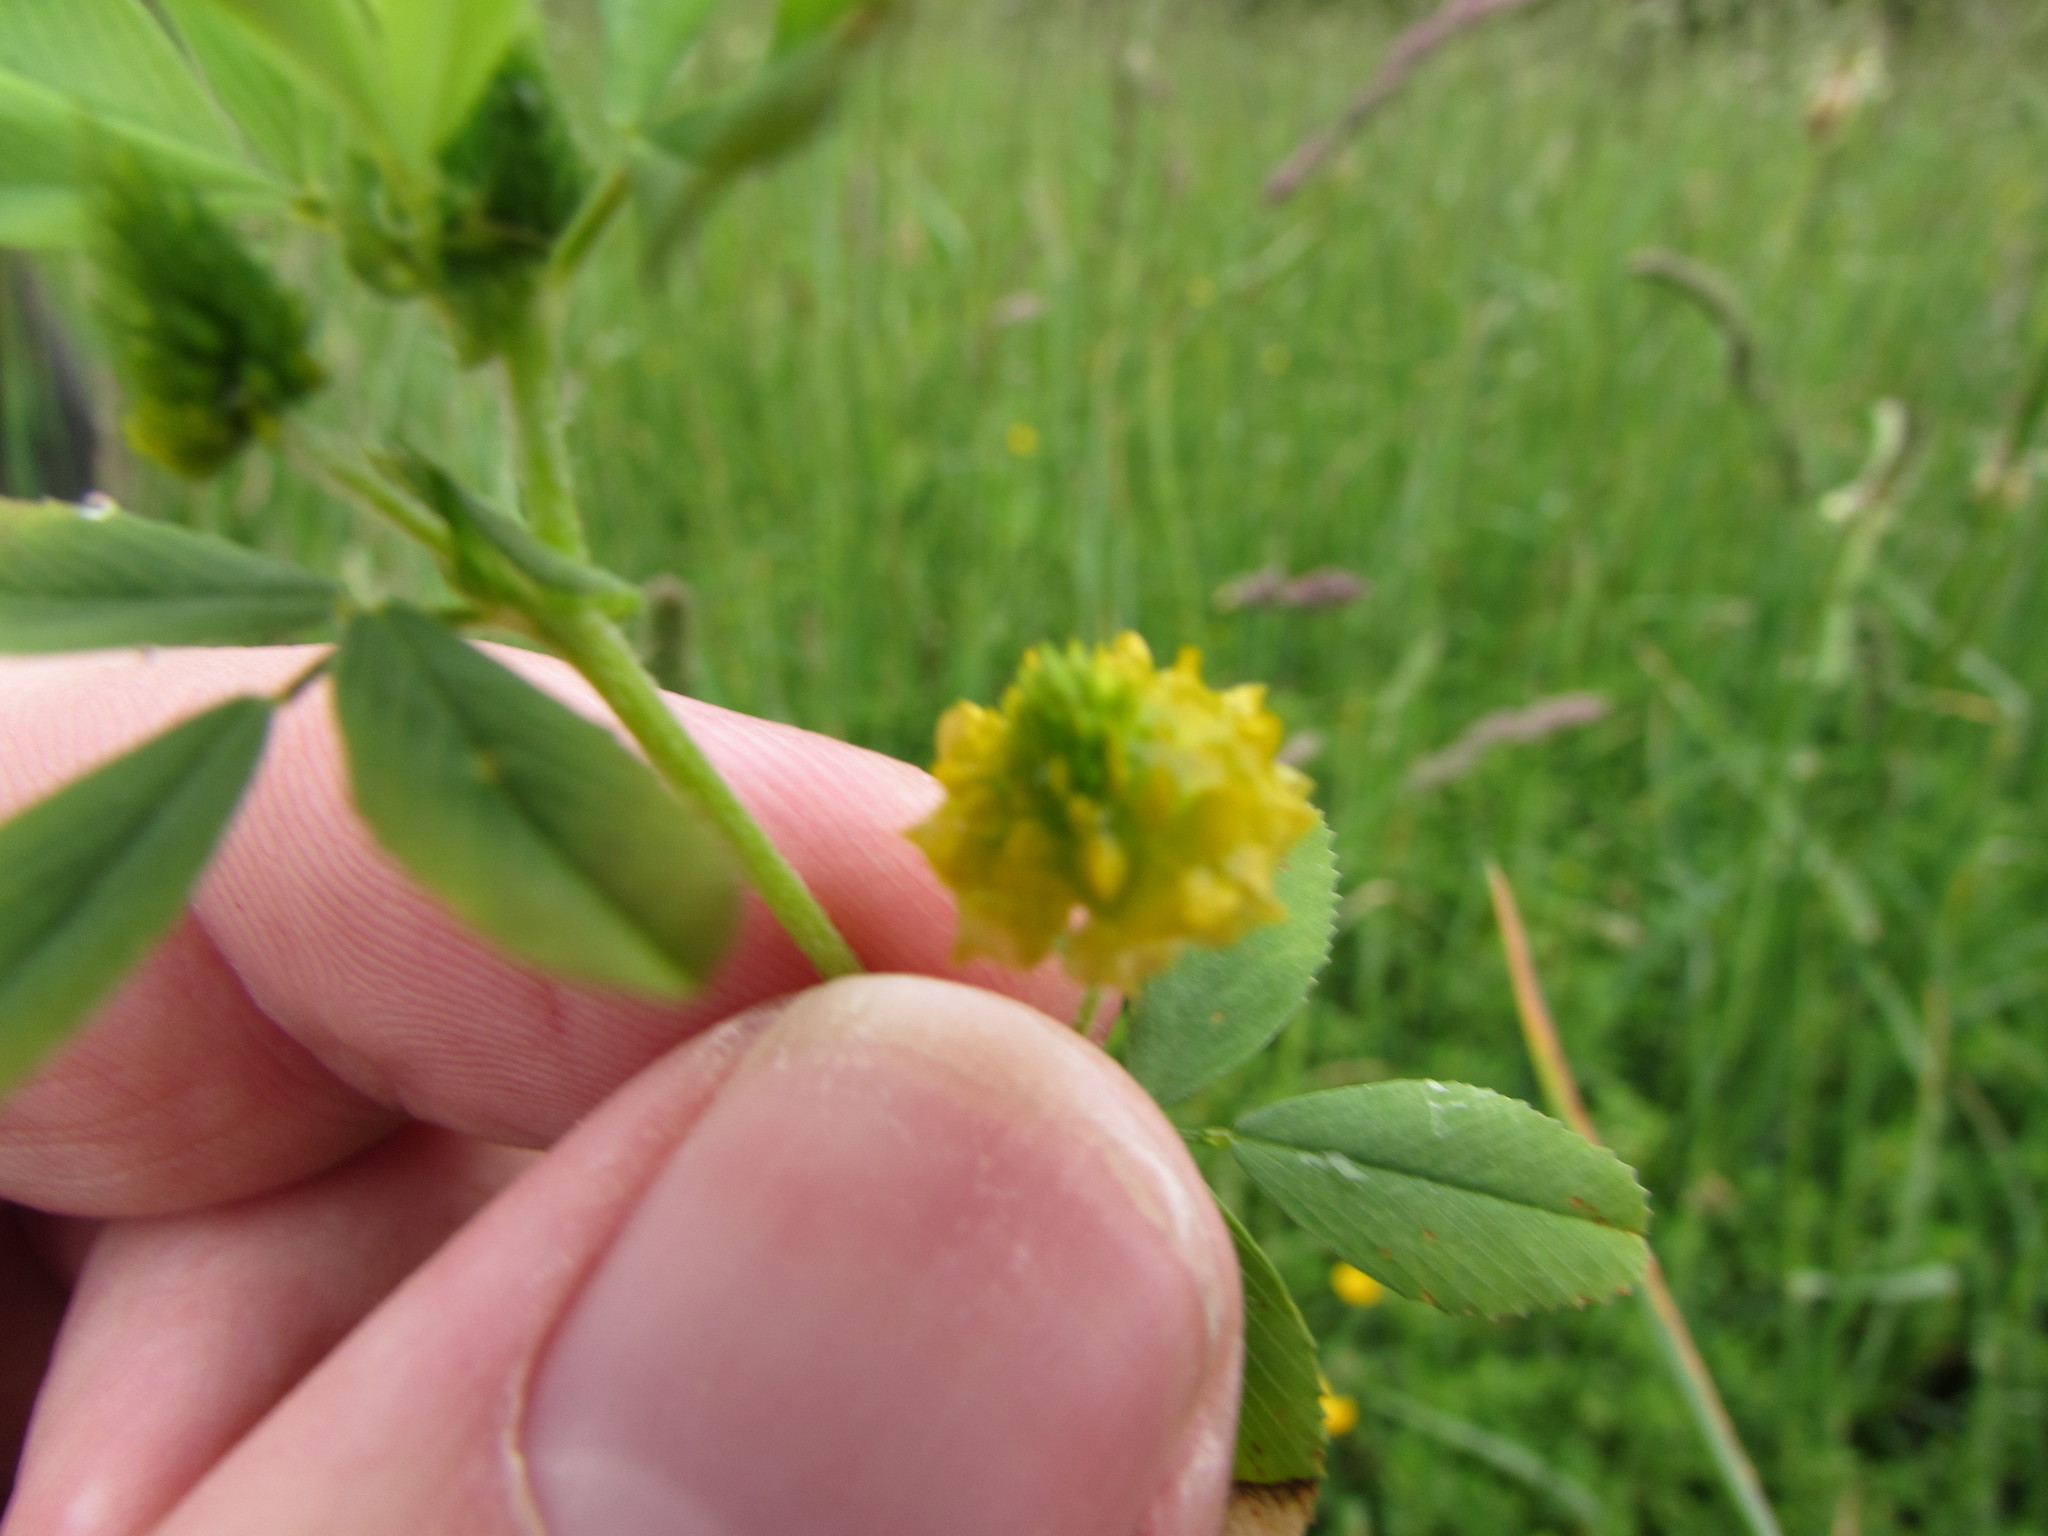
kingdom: Plantae
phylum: Tracheophyta
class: Magnoliopsida
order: Fabales
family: Fabaceae
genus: Trifolium
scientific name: Trifolium campestre
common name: Field clover
